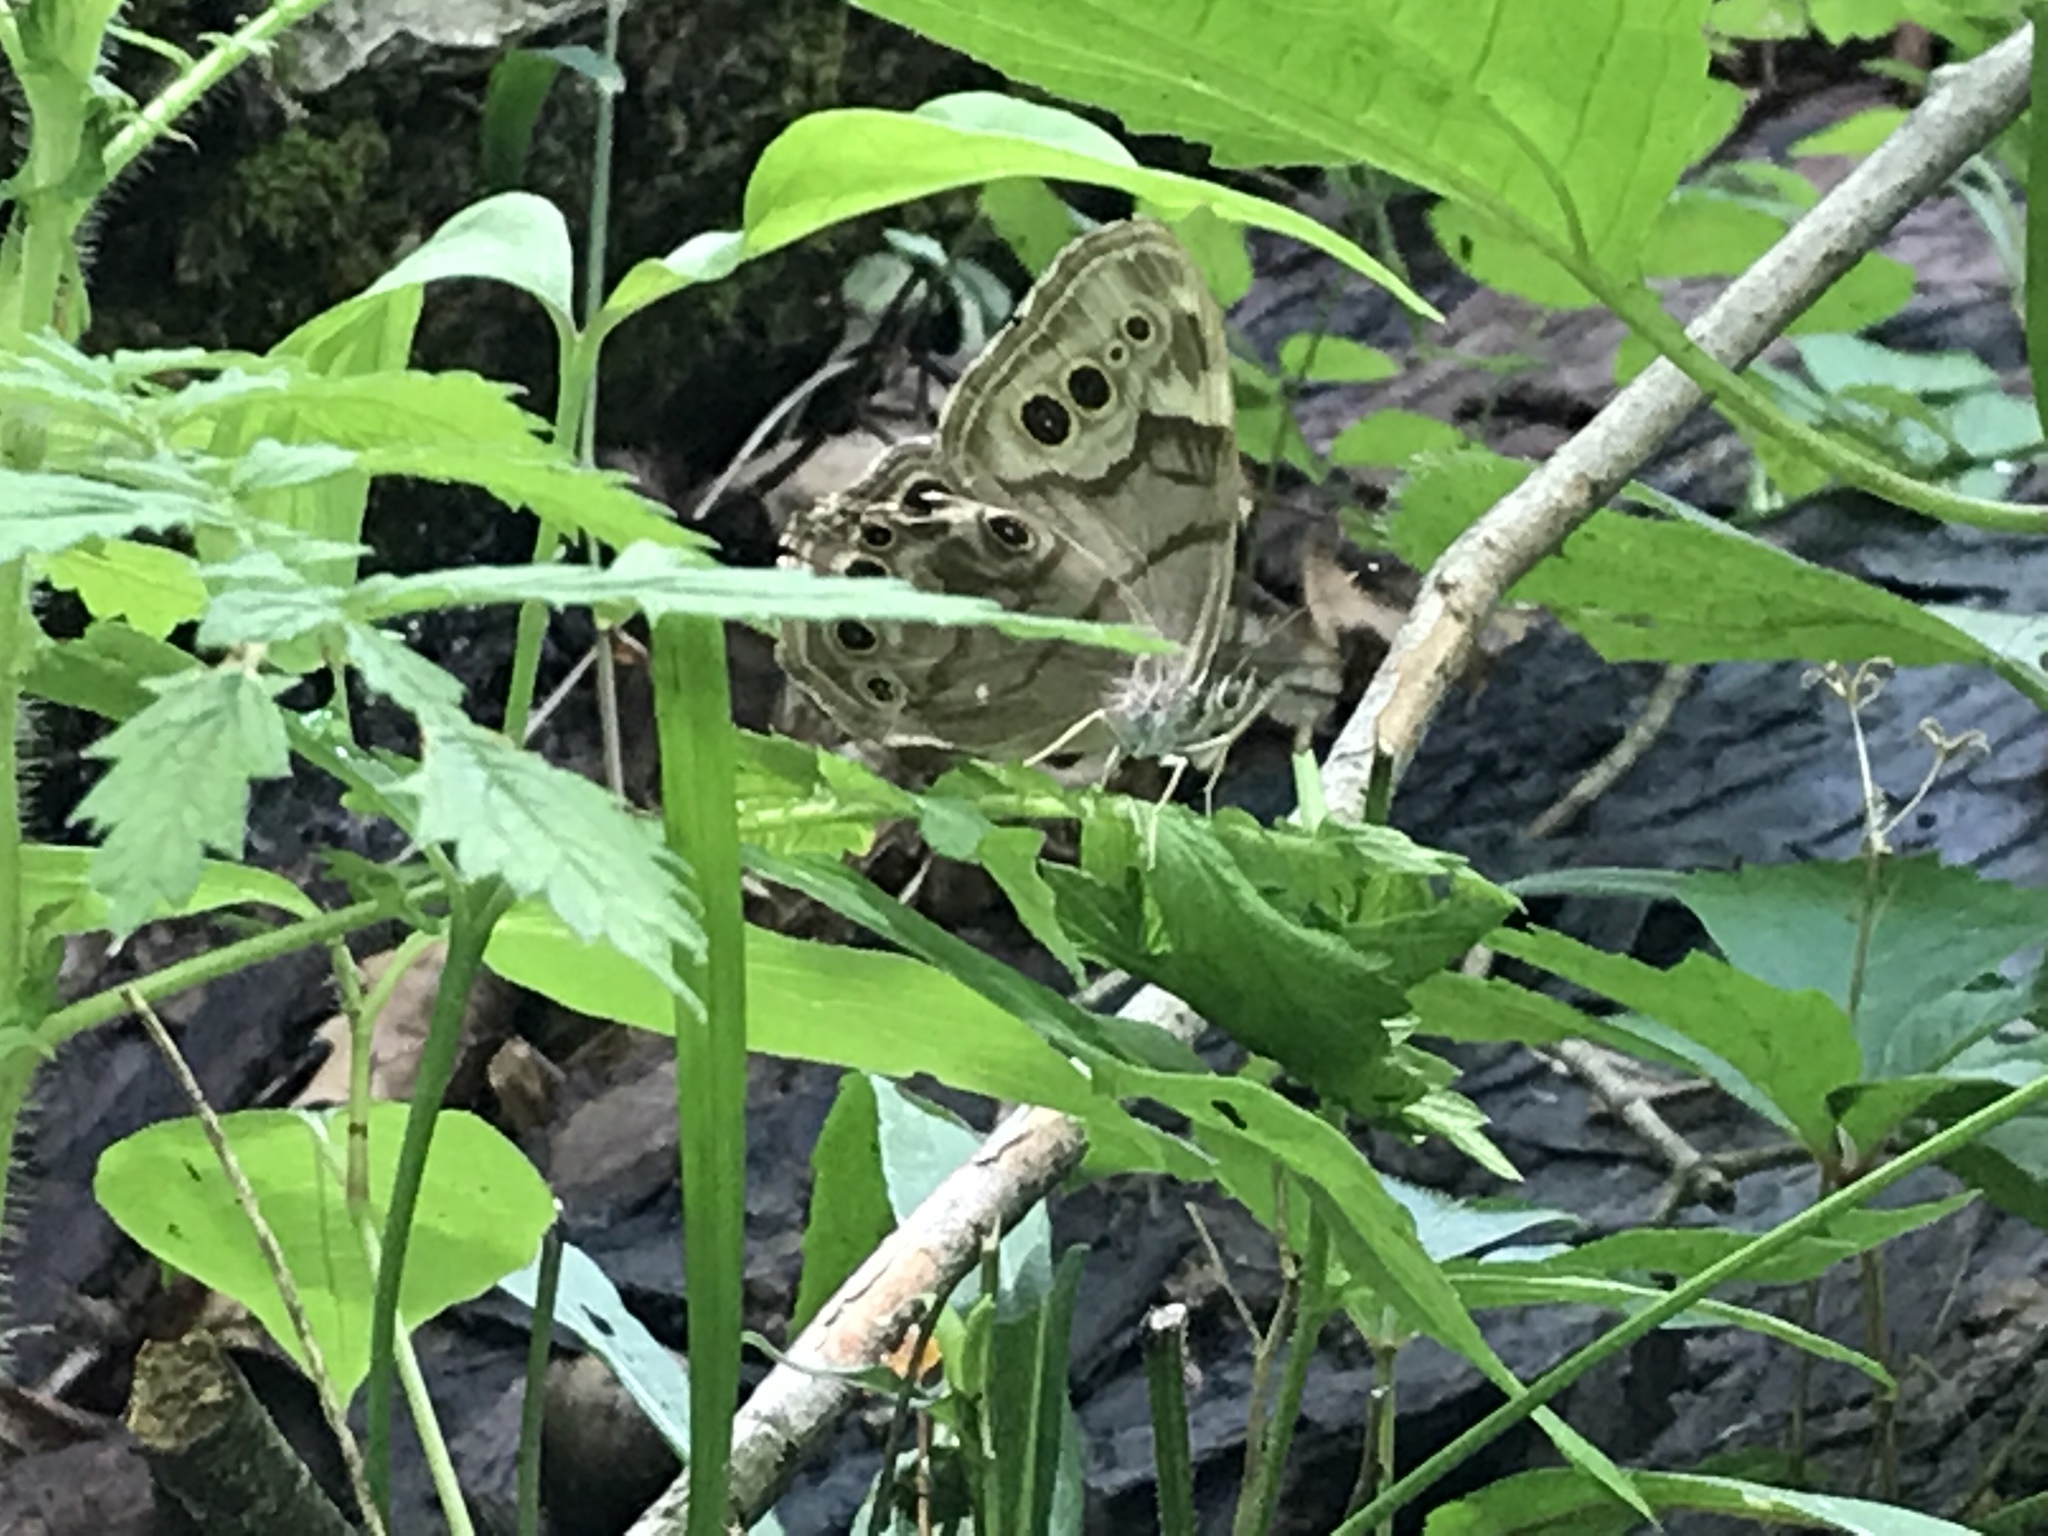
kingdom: Animalia
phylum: Arthropoda
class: Insecta
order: Lepidoptera
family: Nymphalidae
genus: Lethe
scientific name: Lethe anthedon
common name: Northern pearly-eye
